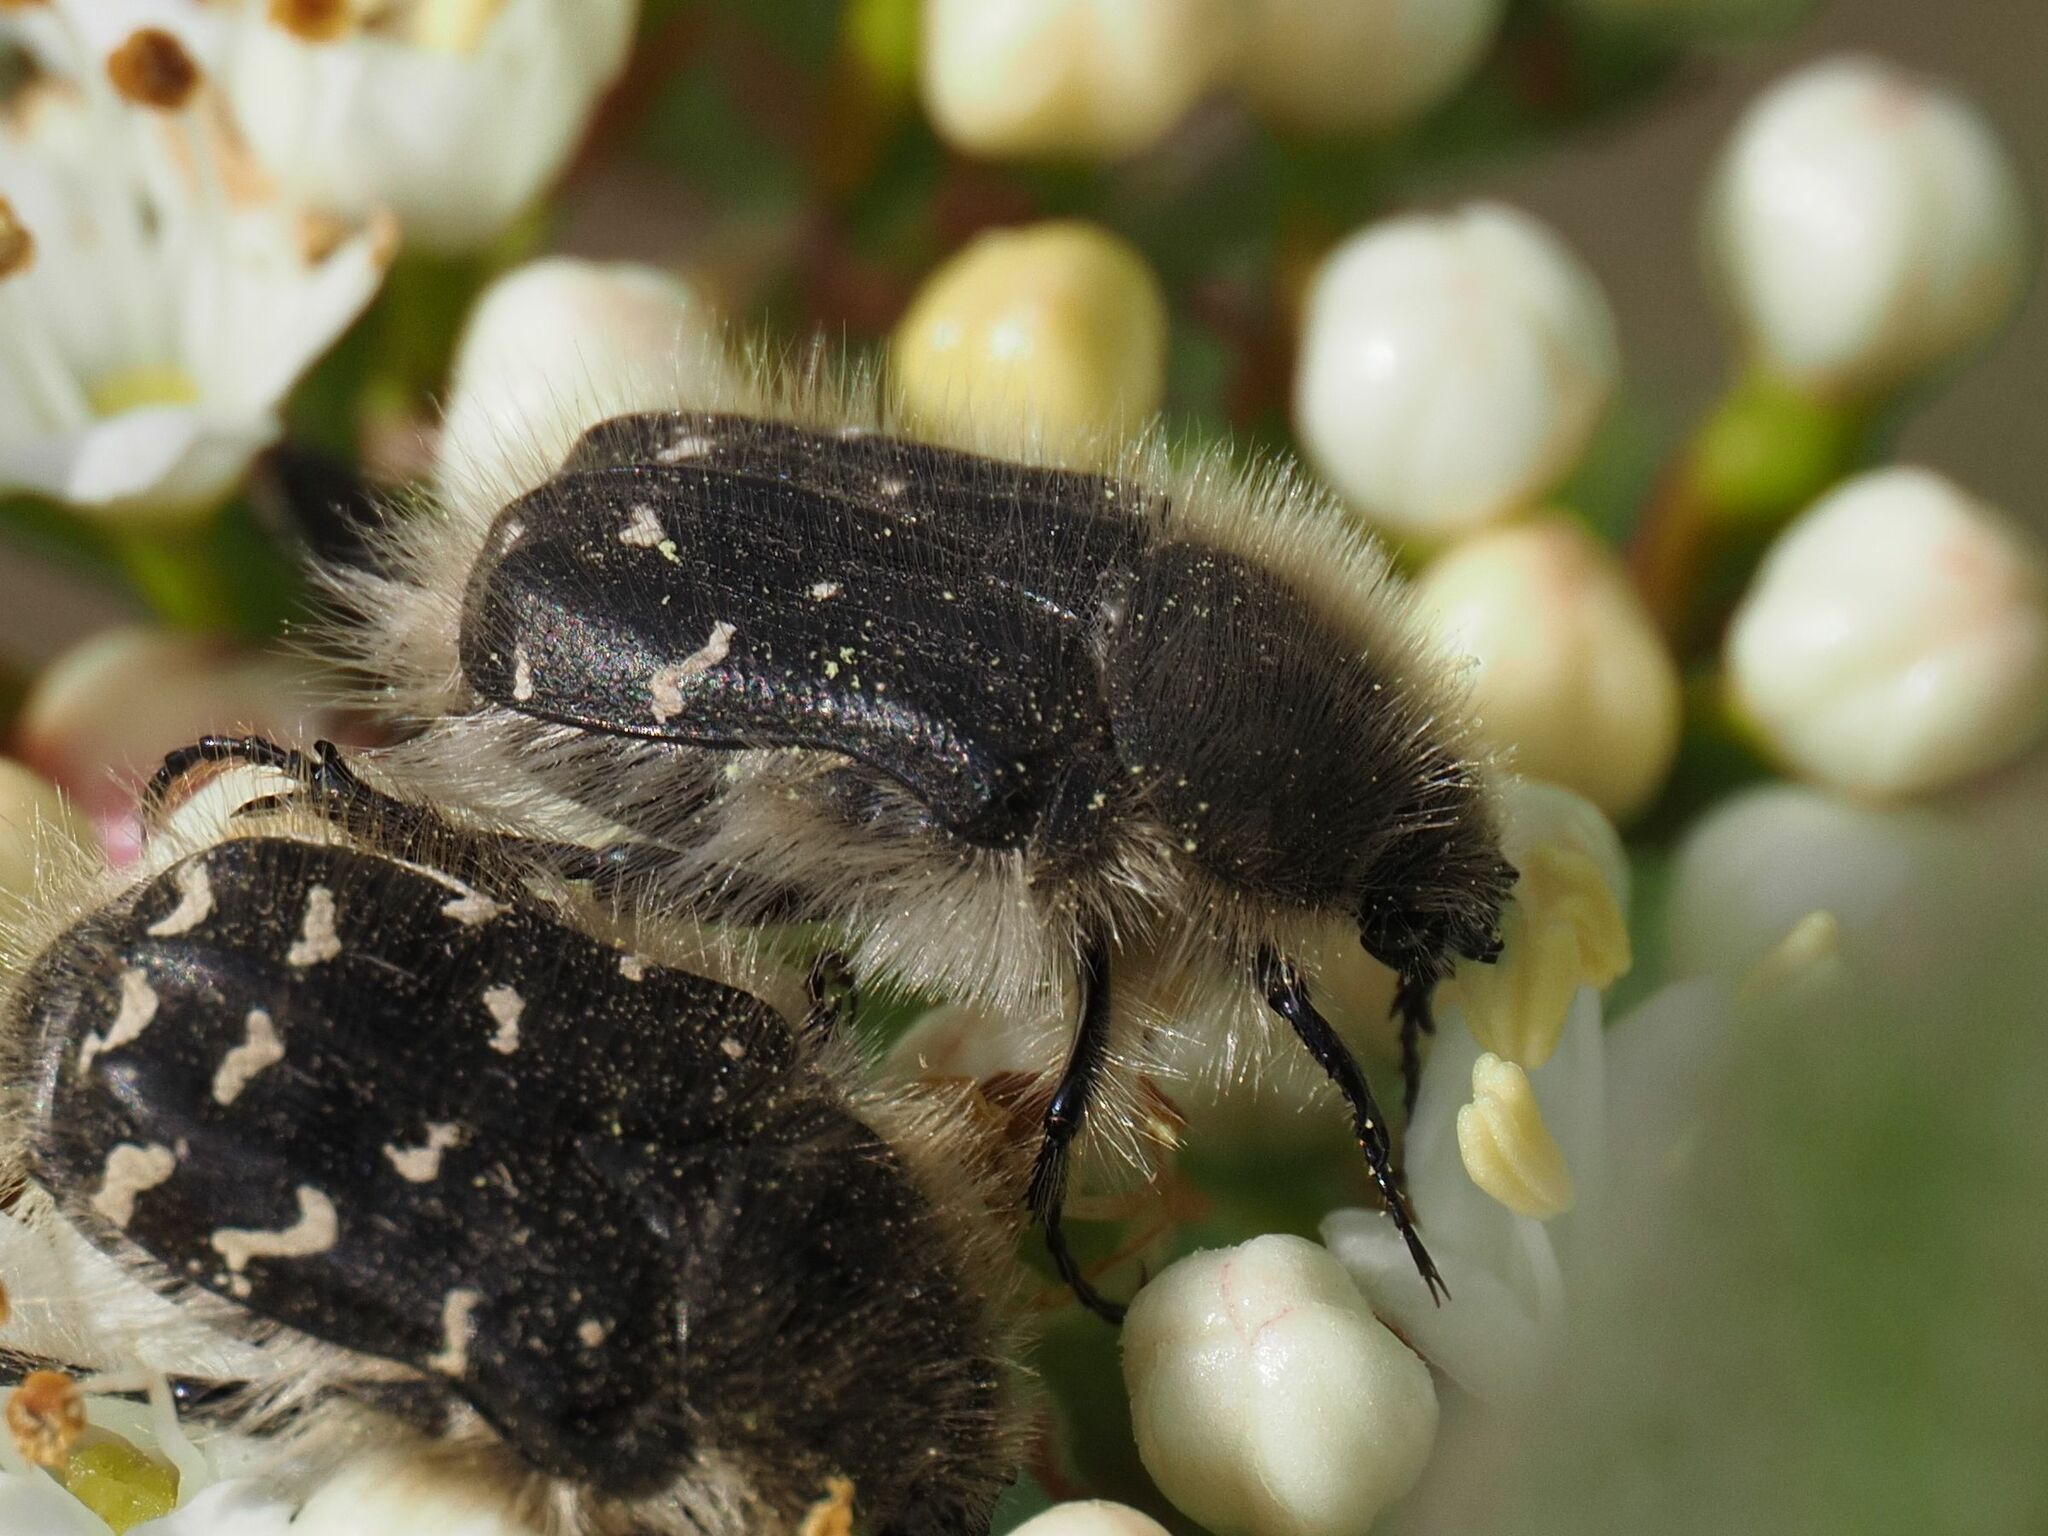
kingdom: Animalia
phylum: Arthropoda
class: Insecta
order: Coleoptera
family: Scarabaeidae
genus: Tropinota
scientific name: Tropinota hirta
